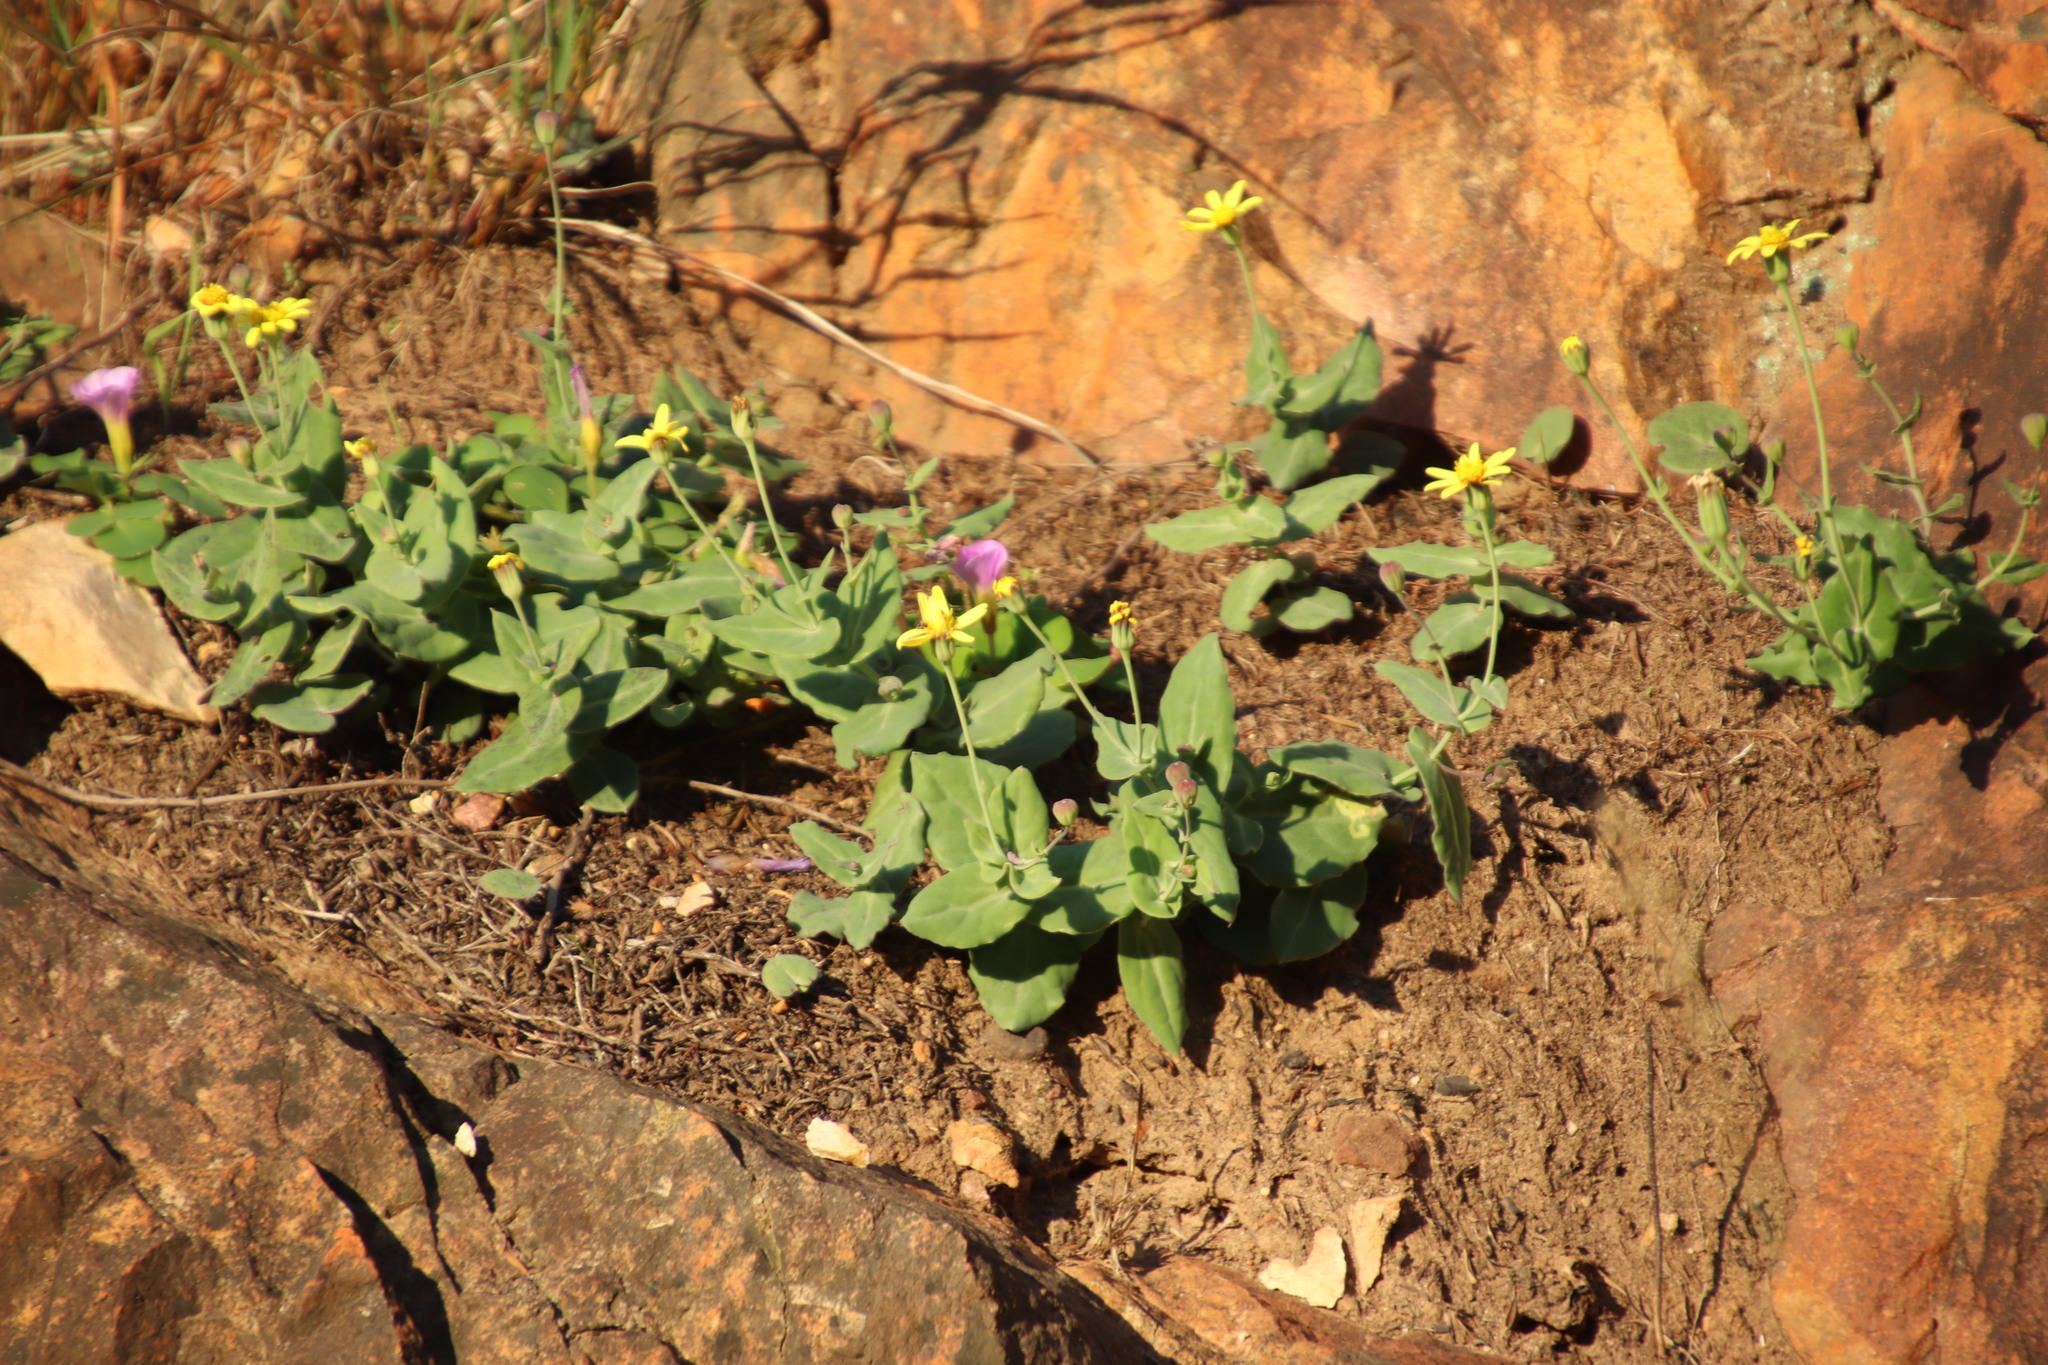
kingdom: Plantae
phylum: Tracheophyta
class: Magnoliopsida
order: Asterales
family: Asteraceae
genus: Othonna
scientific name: Othonna perfoliata
